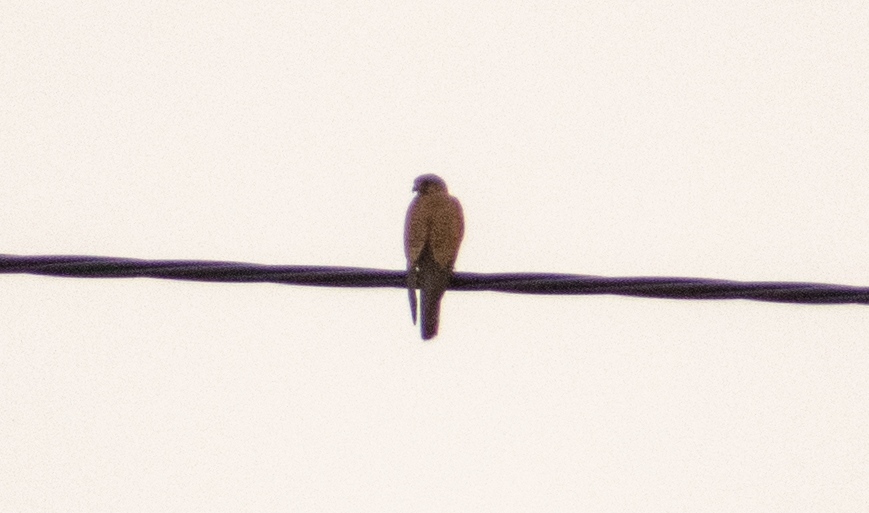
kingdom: Animalia
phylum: Chordata
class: Aves
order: Falconiformes
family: Falconidae
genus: Falco
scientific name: Falco tinnunculus
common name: Common kestrel
